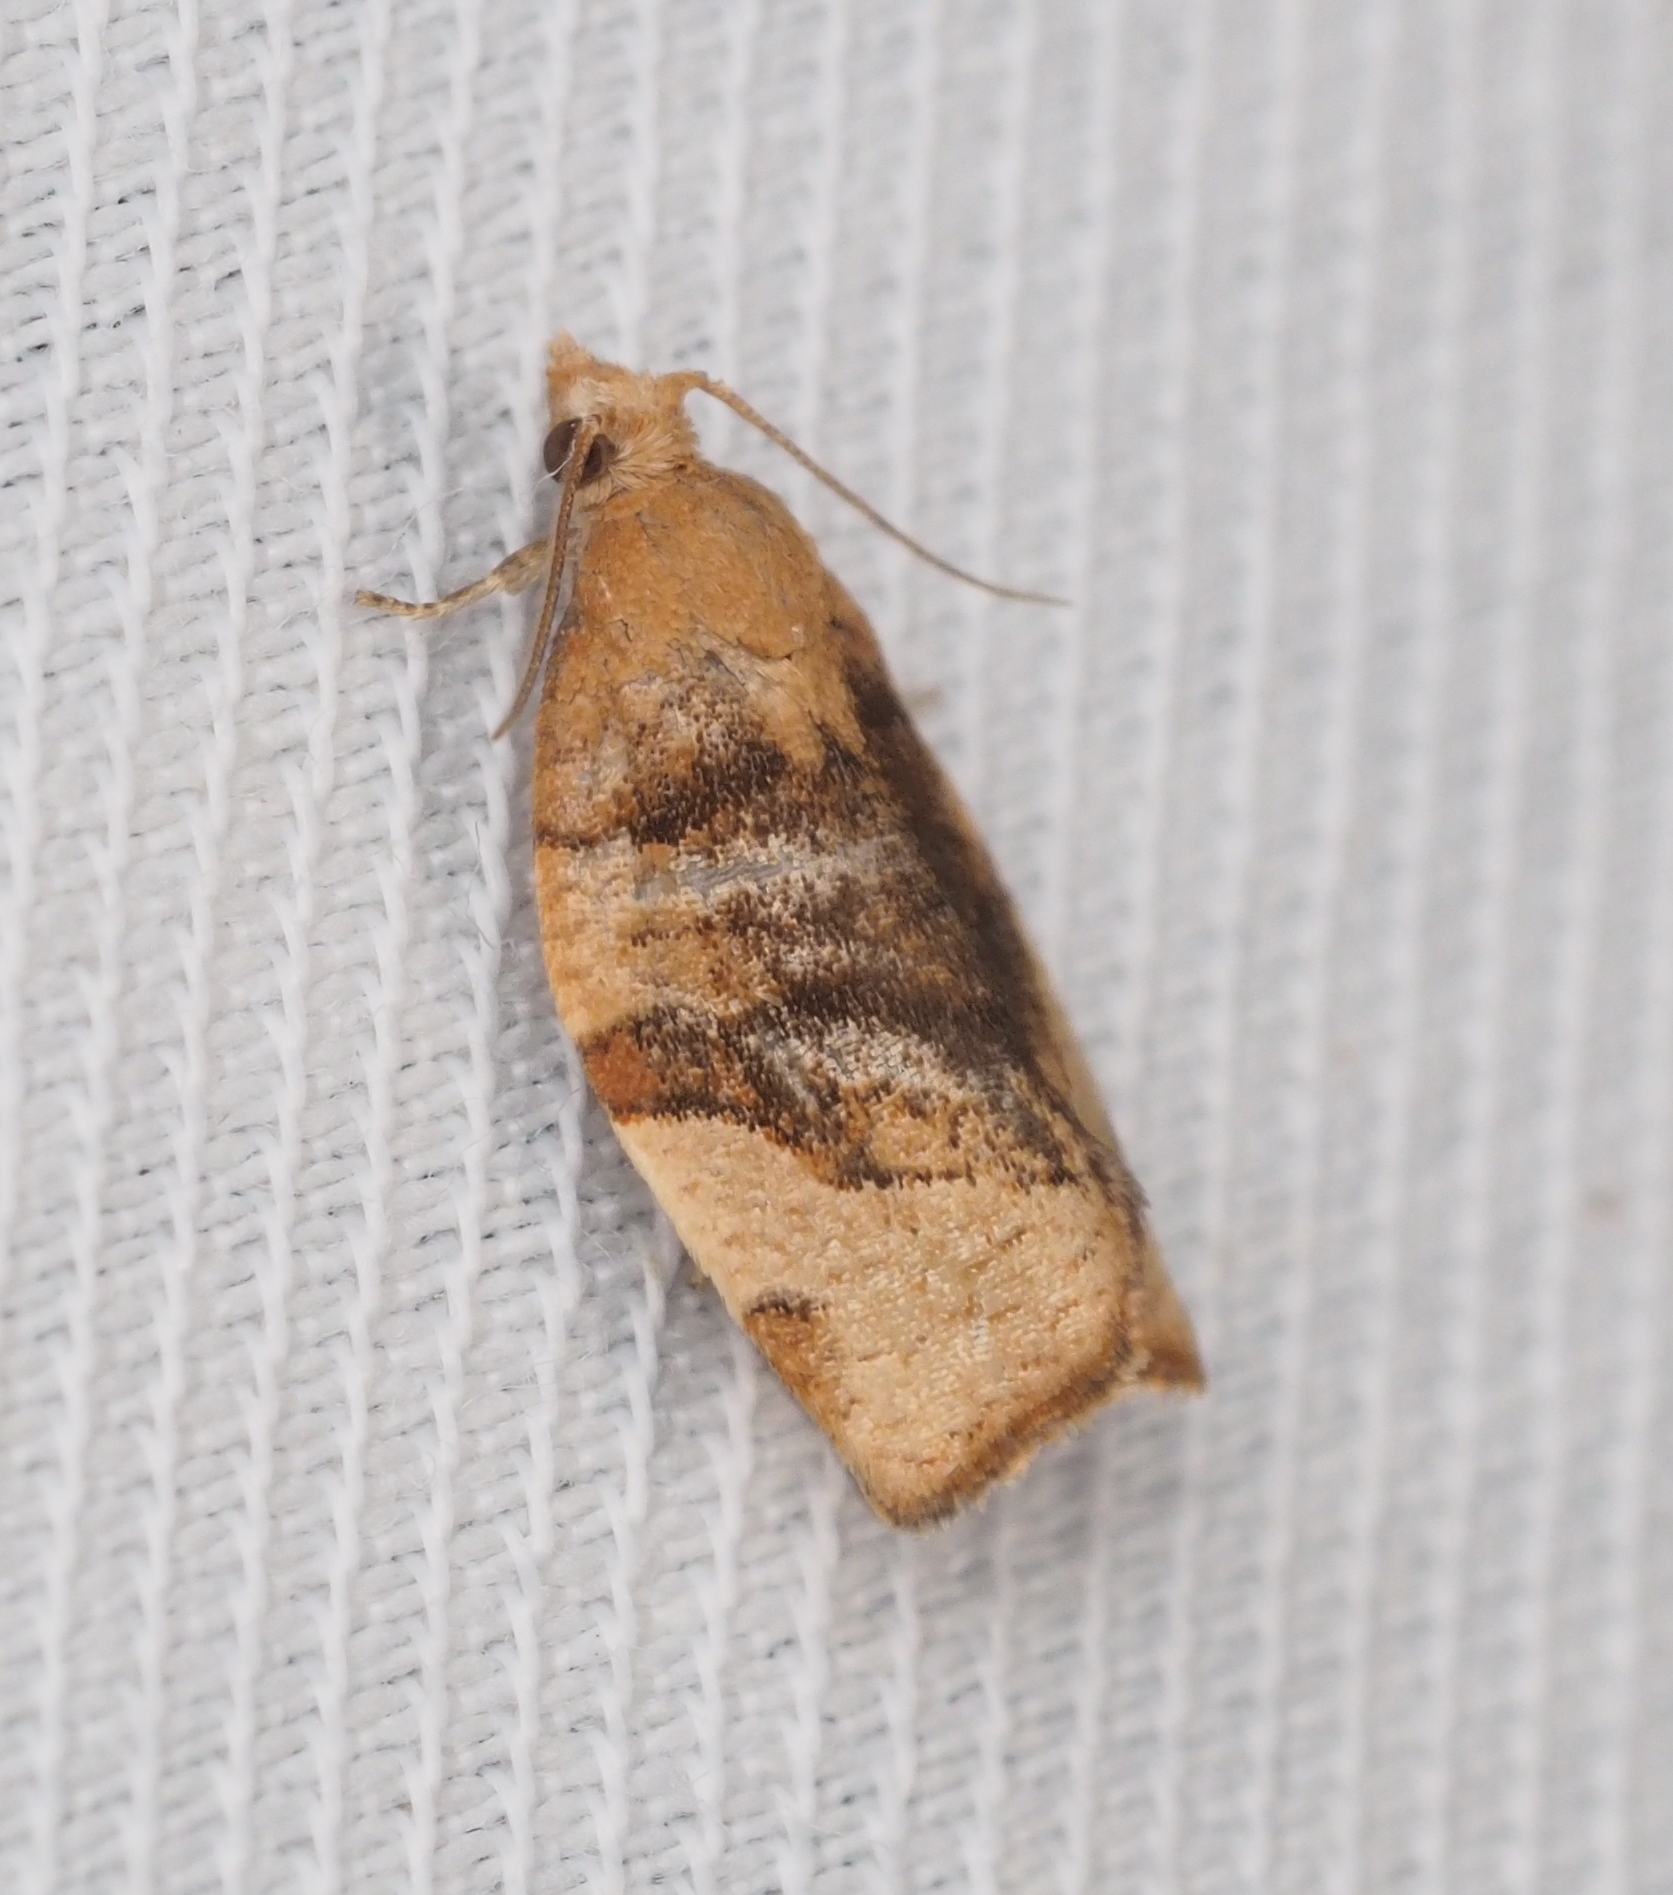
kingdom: Animalia
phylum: Arthropoda
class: Insecta
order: Lepidoptera
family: Tortricidae
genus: Pandemis
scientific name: Pandemis cerasana
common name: Barred fruit-tree tortrix
